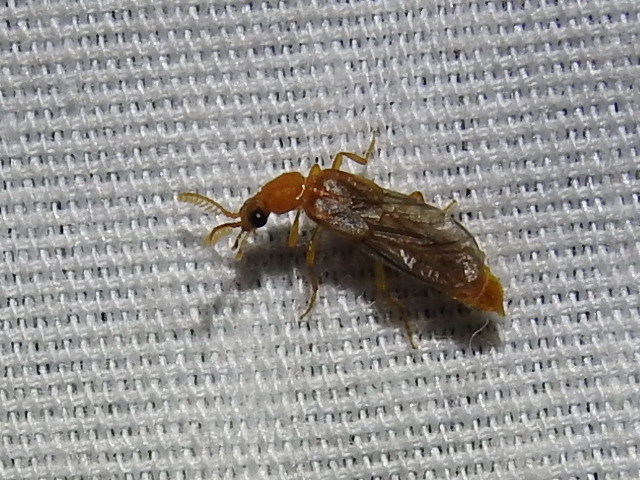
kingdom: Animalia
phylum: Arthropoda
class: Insecta
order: Coleoptera
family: Phengodidae
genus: Paraptorthodius
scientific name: Paraptorthodius mirabilis
